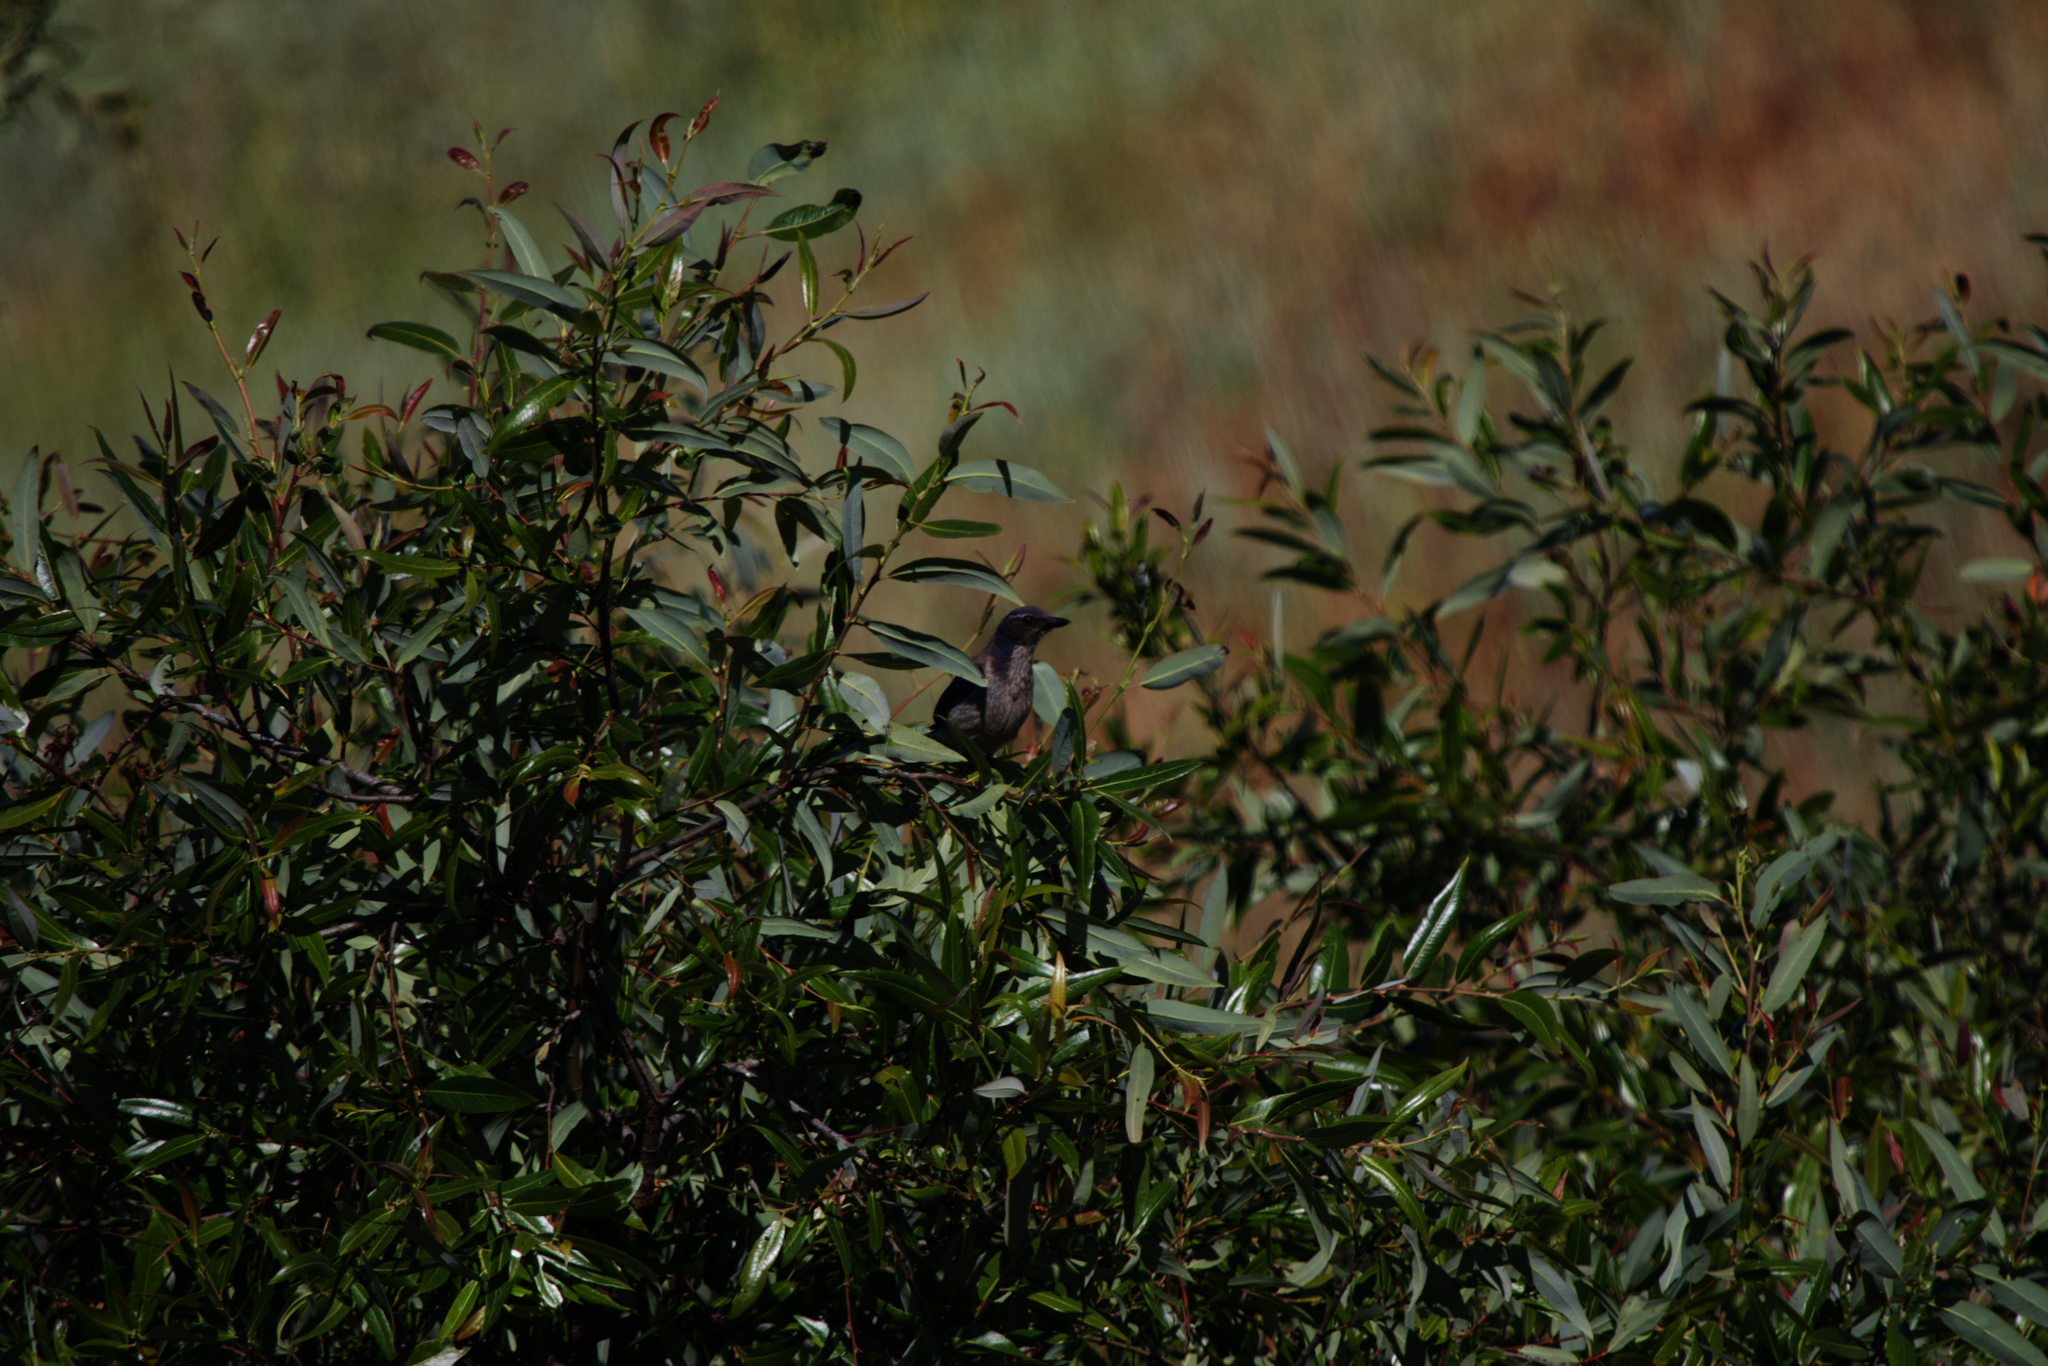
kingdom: Animalia
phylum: Chordata
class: Aves
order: Passeriformes
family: Corvidae
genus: Aphelocoma
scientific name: Aphelocoma californica
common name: California scrub-jay
